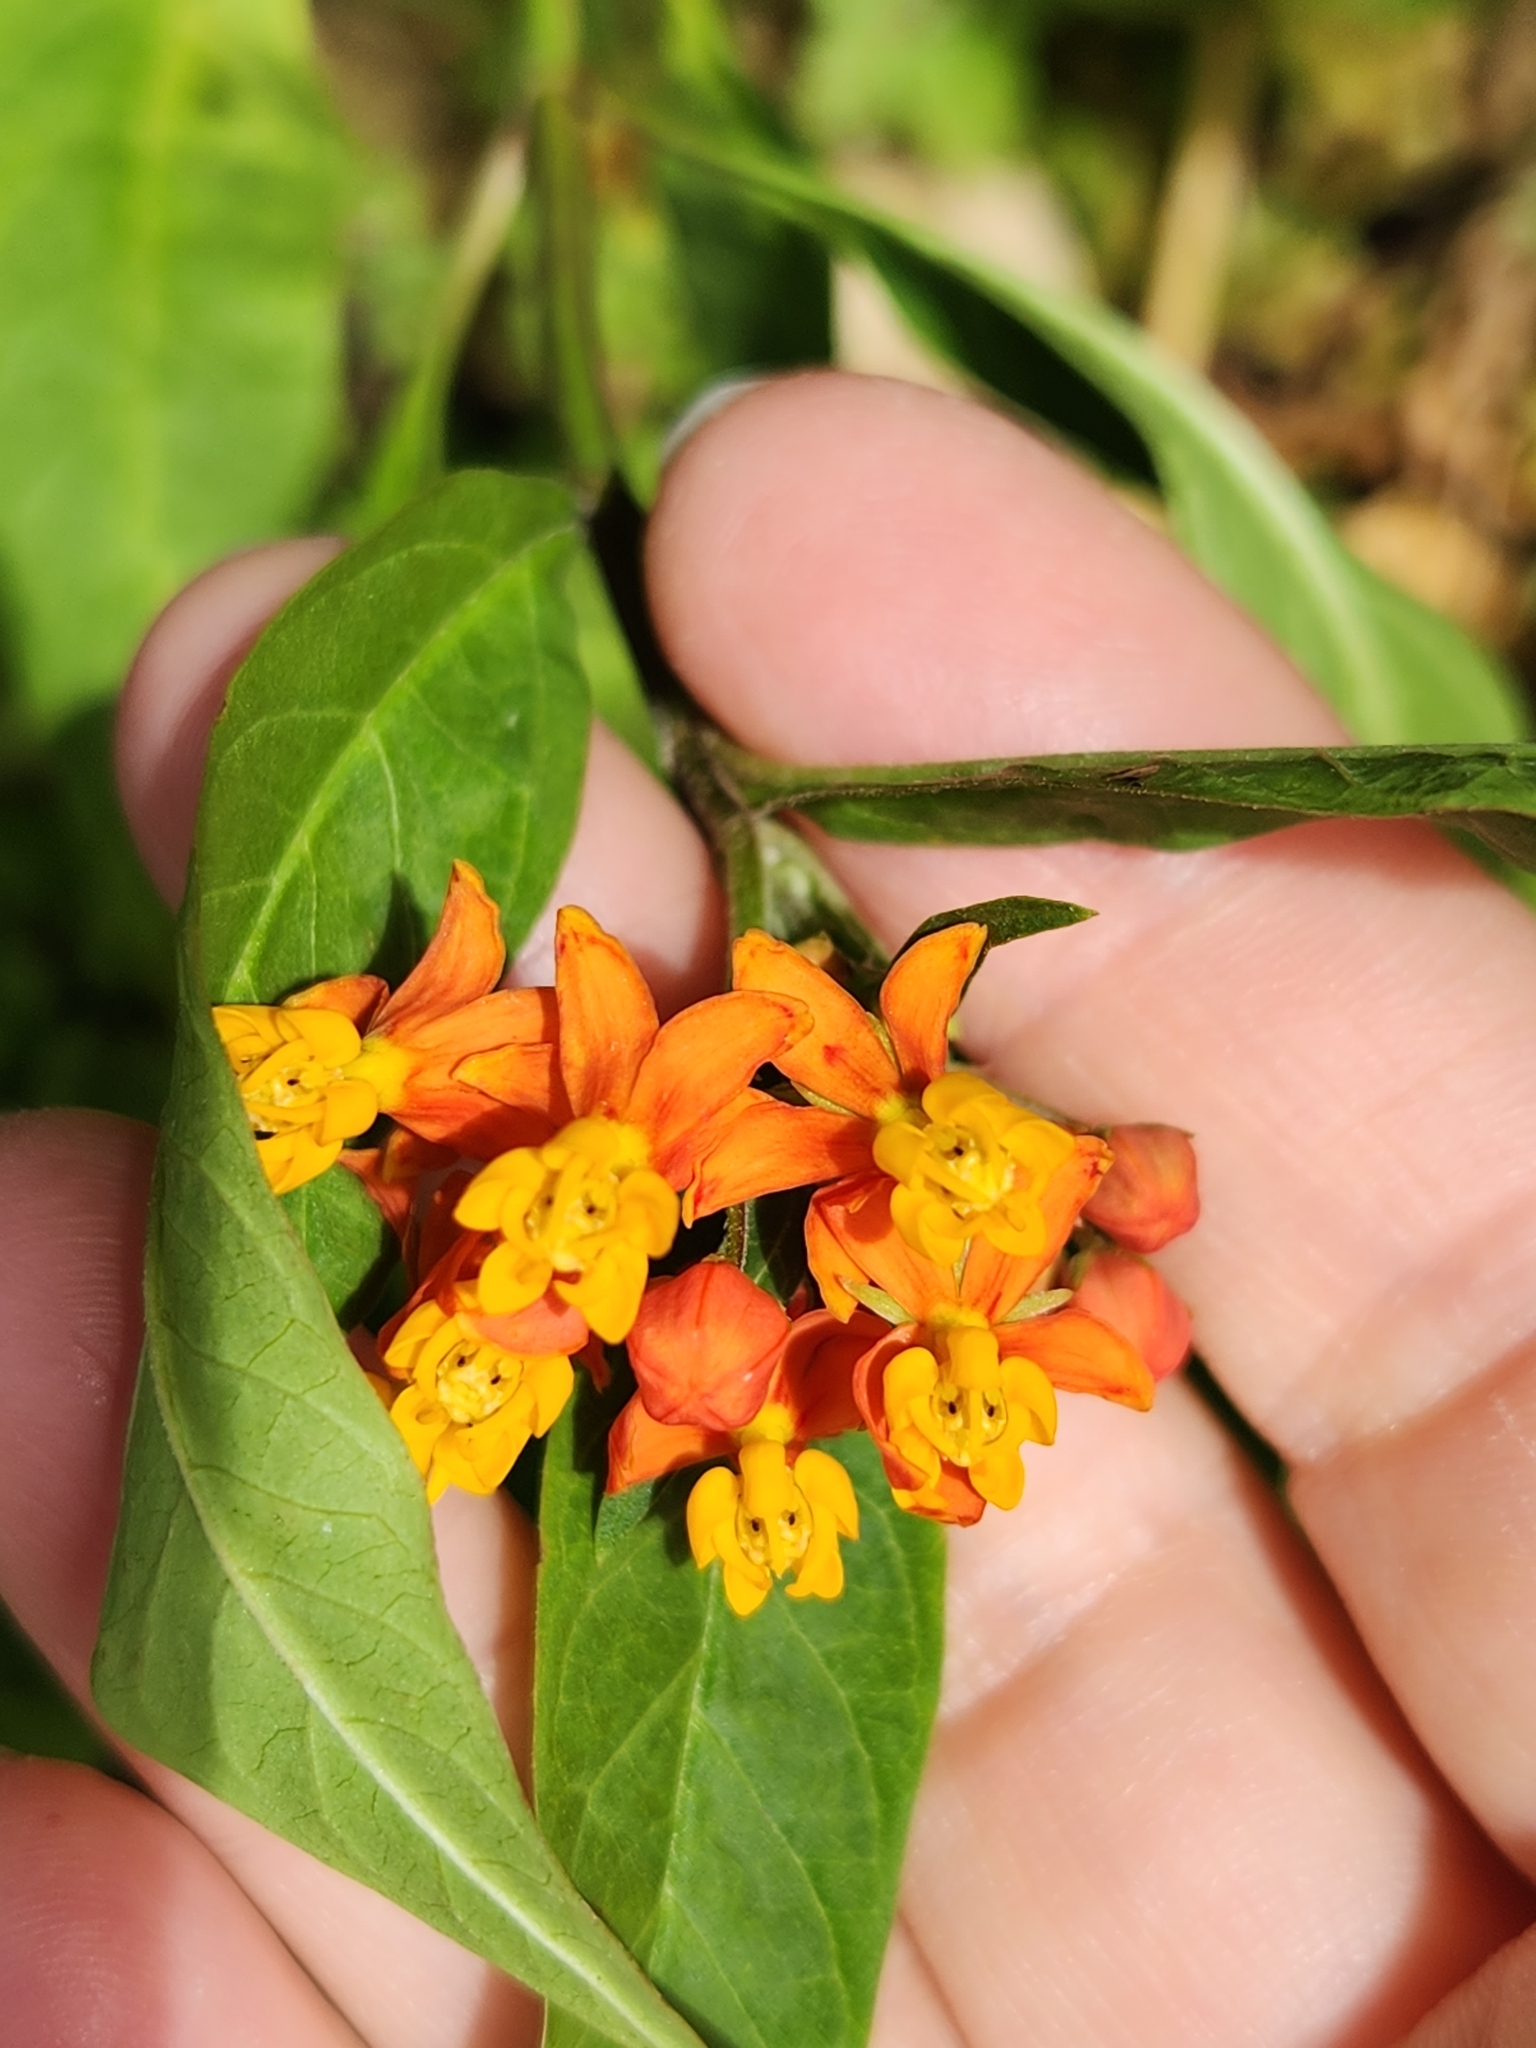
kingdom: Plantae
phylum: Tracheophyta
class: Magnoliopsida
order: Gentianales
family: Apocynaceae
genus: Asclepias
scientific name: Asclepias curassavica
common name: Bloodflower
